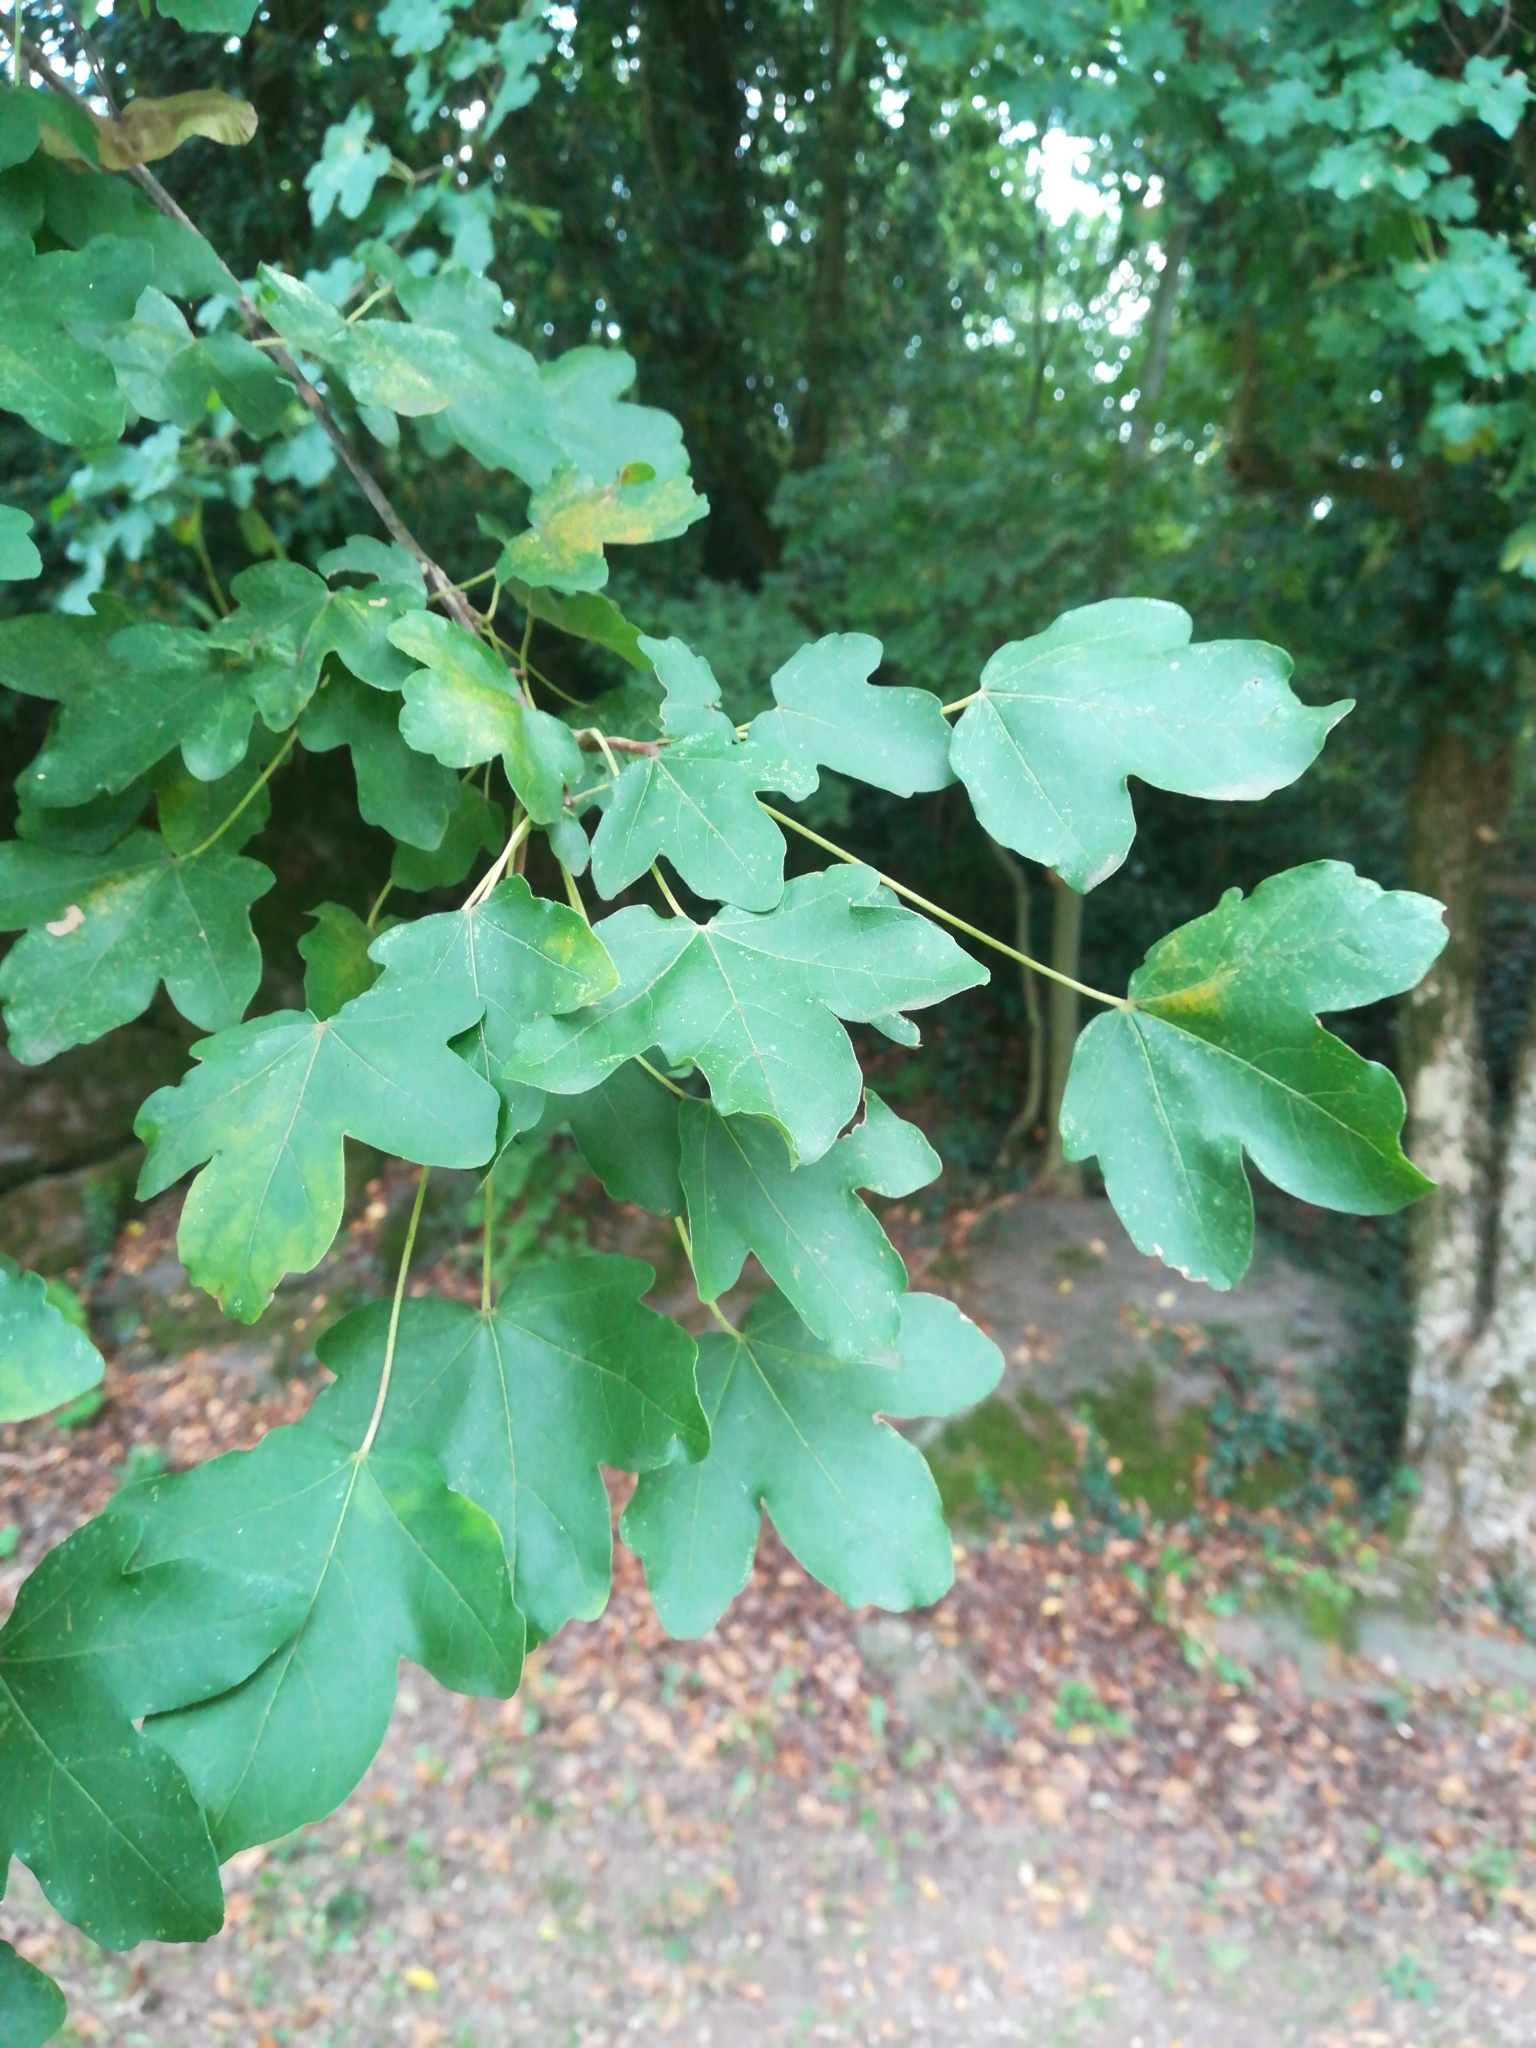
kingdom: Plantae
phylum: Tracheophyta
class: Magnoliopsida
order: Sapindales
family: Sapindaceae
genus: Acer
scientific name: Acer campestre
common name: Field maple
